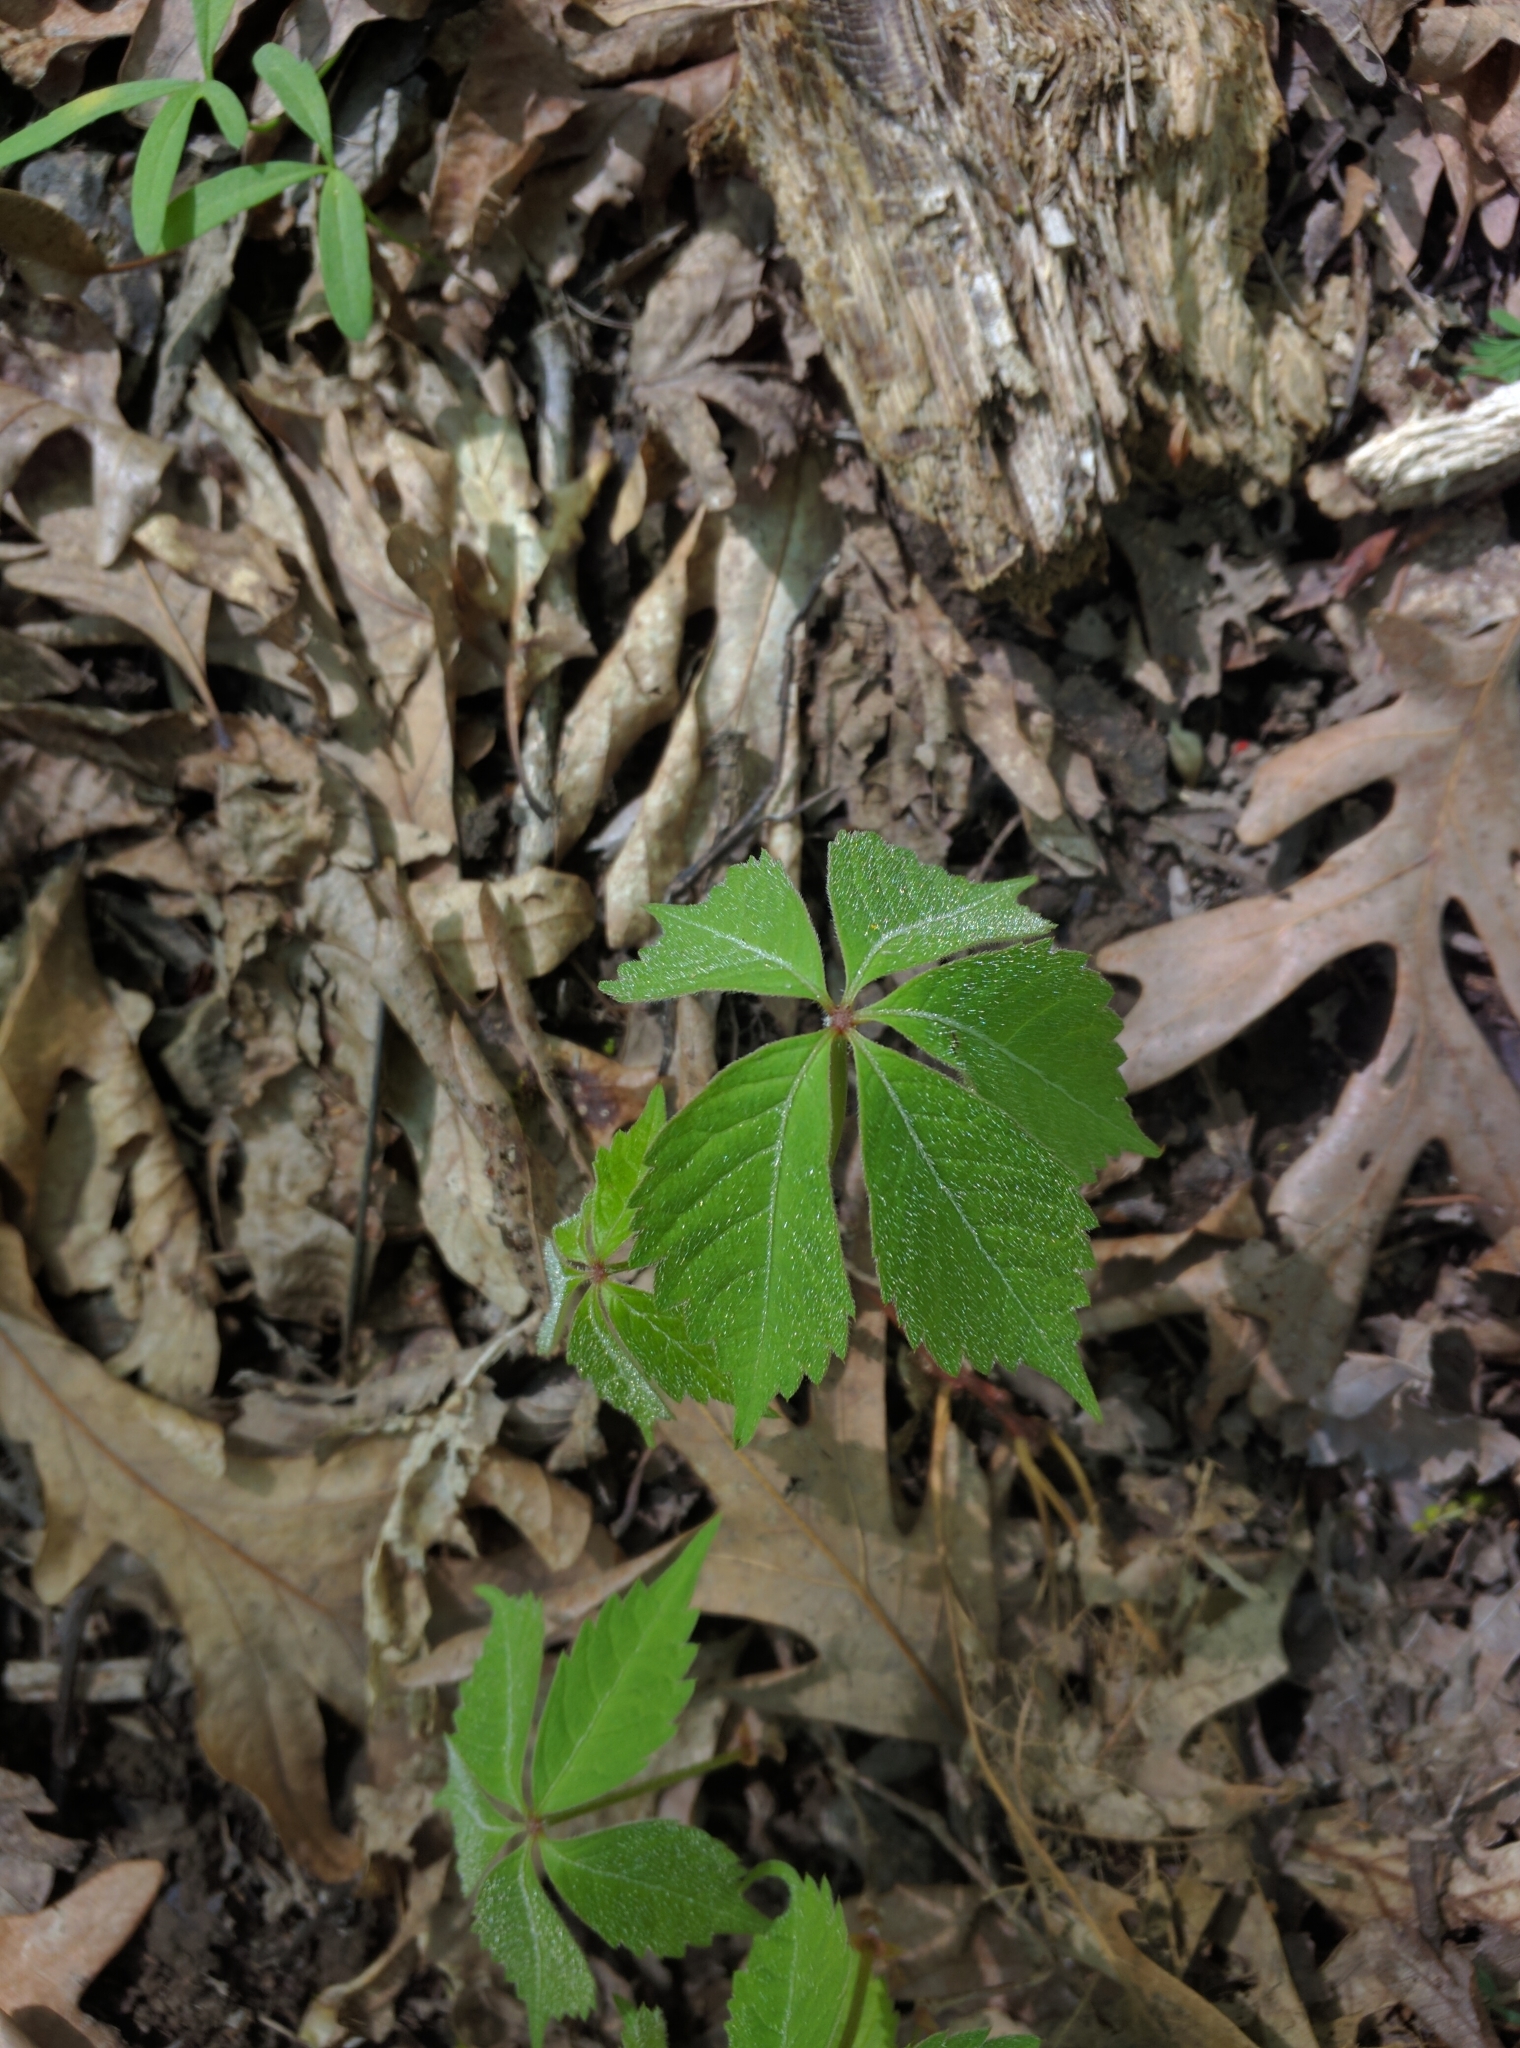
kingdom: Plantae
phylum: Tracheophyta
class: Magnoliopsida
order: Vitales
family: Vitaceae
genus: Parthenocissus
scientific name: Parthenocissus quinquefolia
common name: Virginia-creeper
